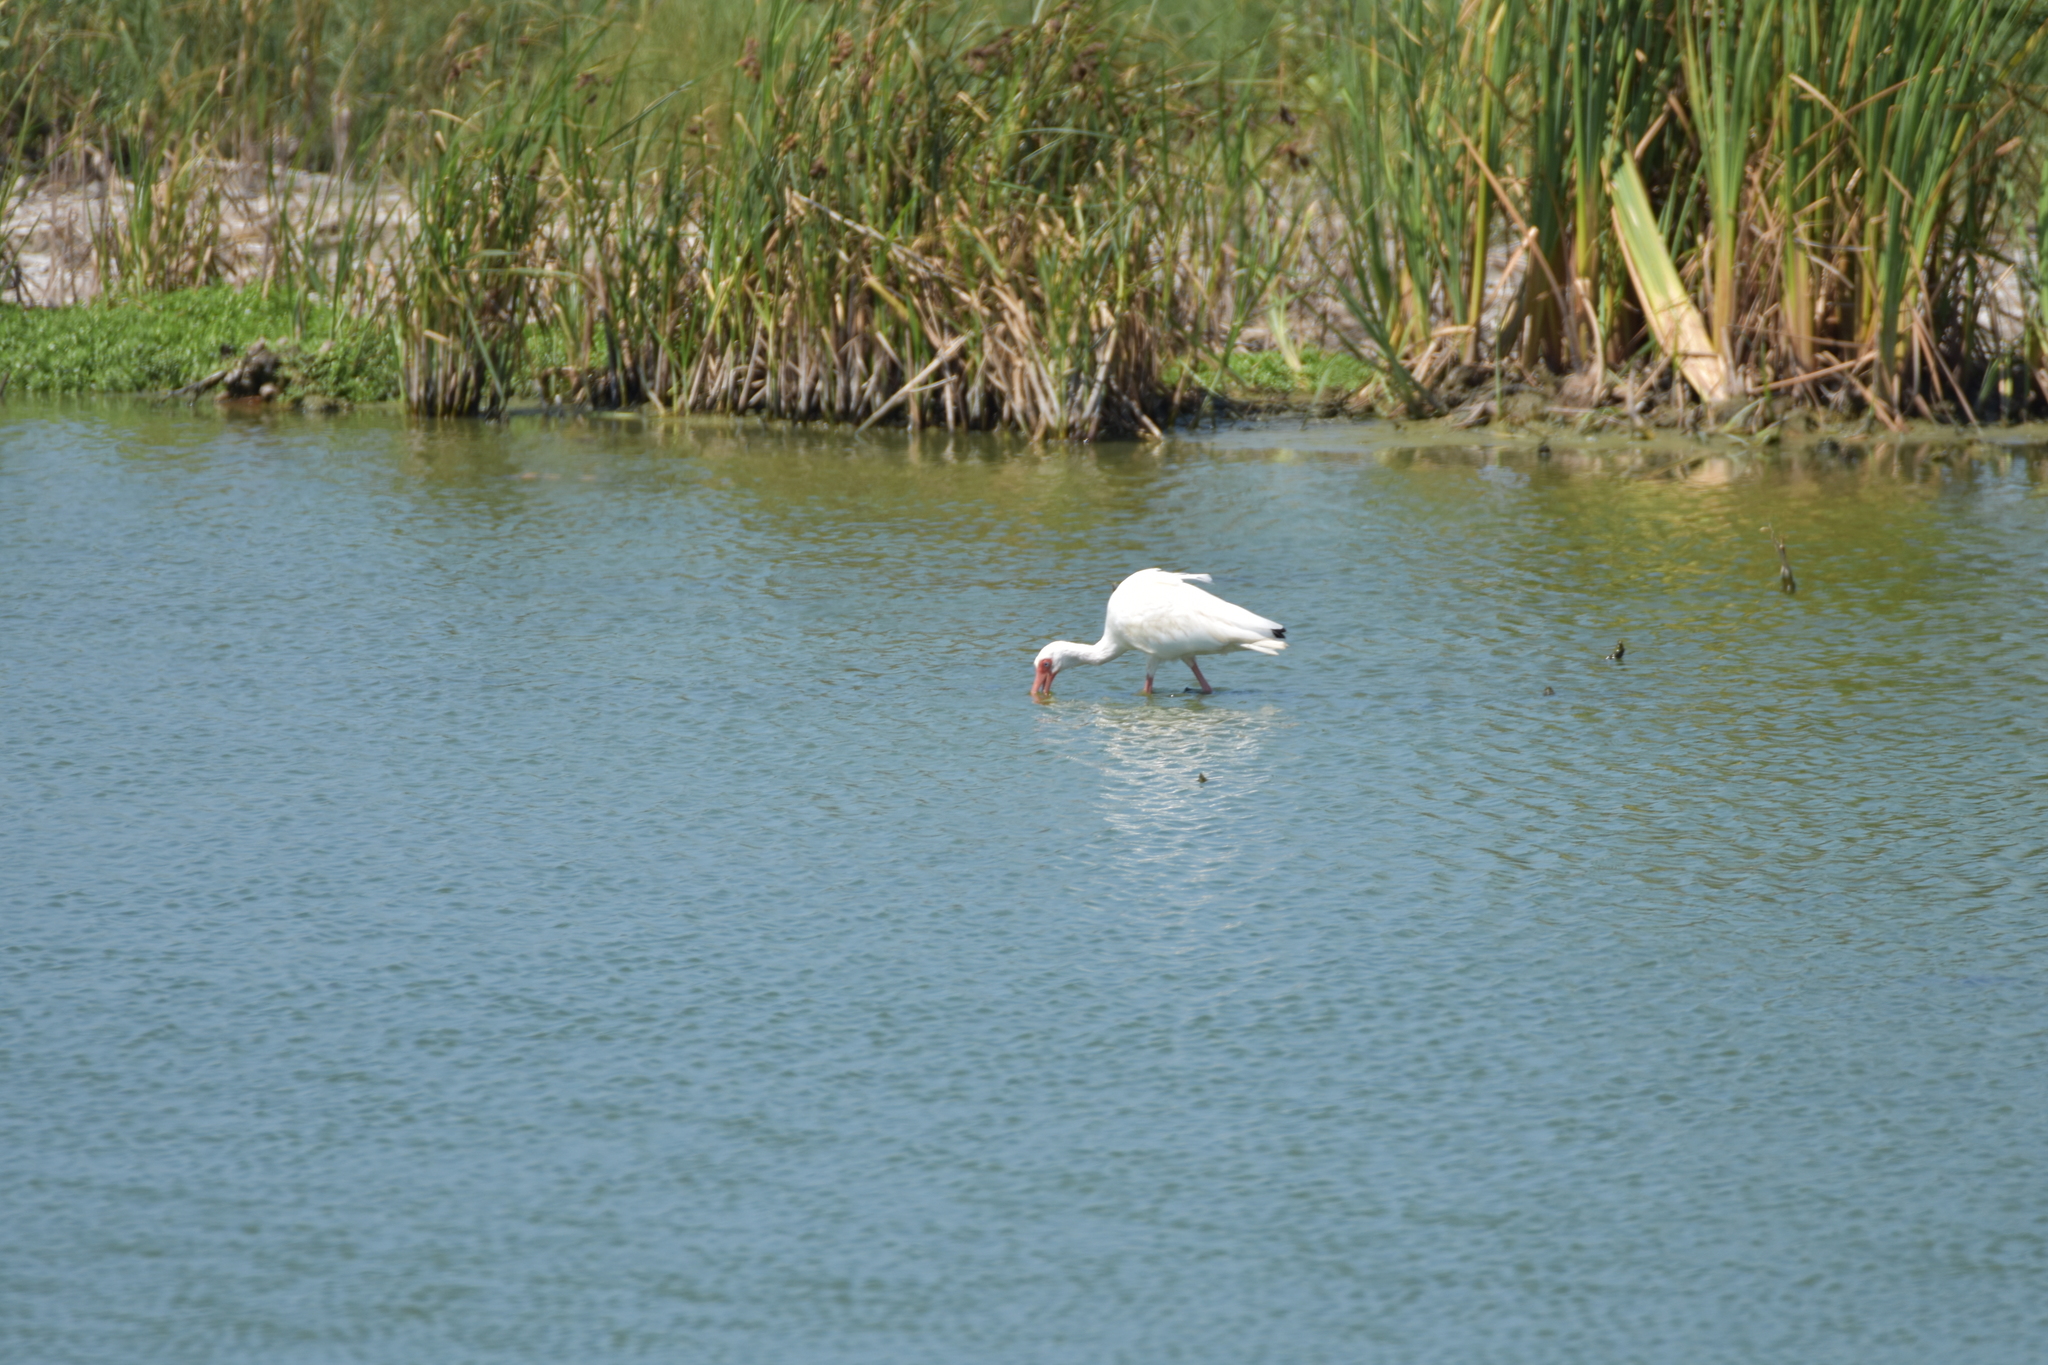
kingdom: Animalia
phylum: Chordata
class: Aves
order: Pelecaniformes
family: Threskiornithidae
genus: Eudocimus
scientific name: Eudocimus albus
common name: White ibis
